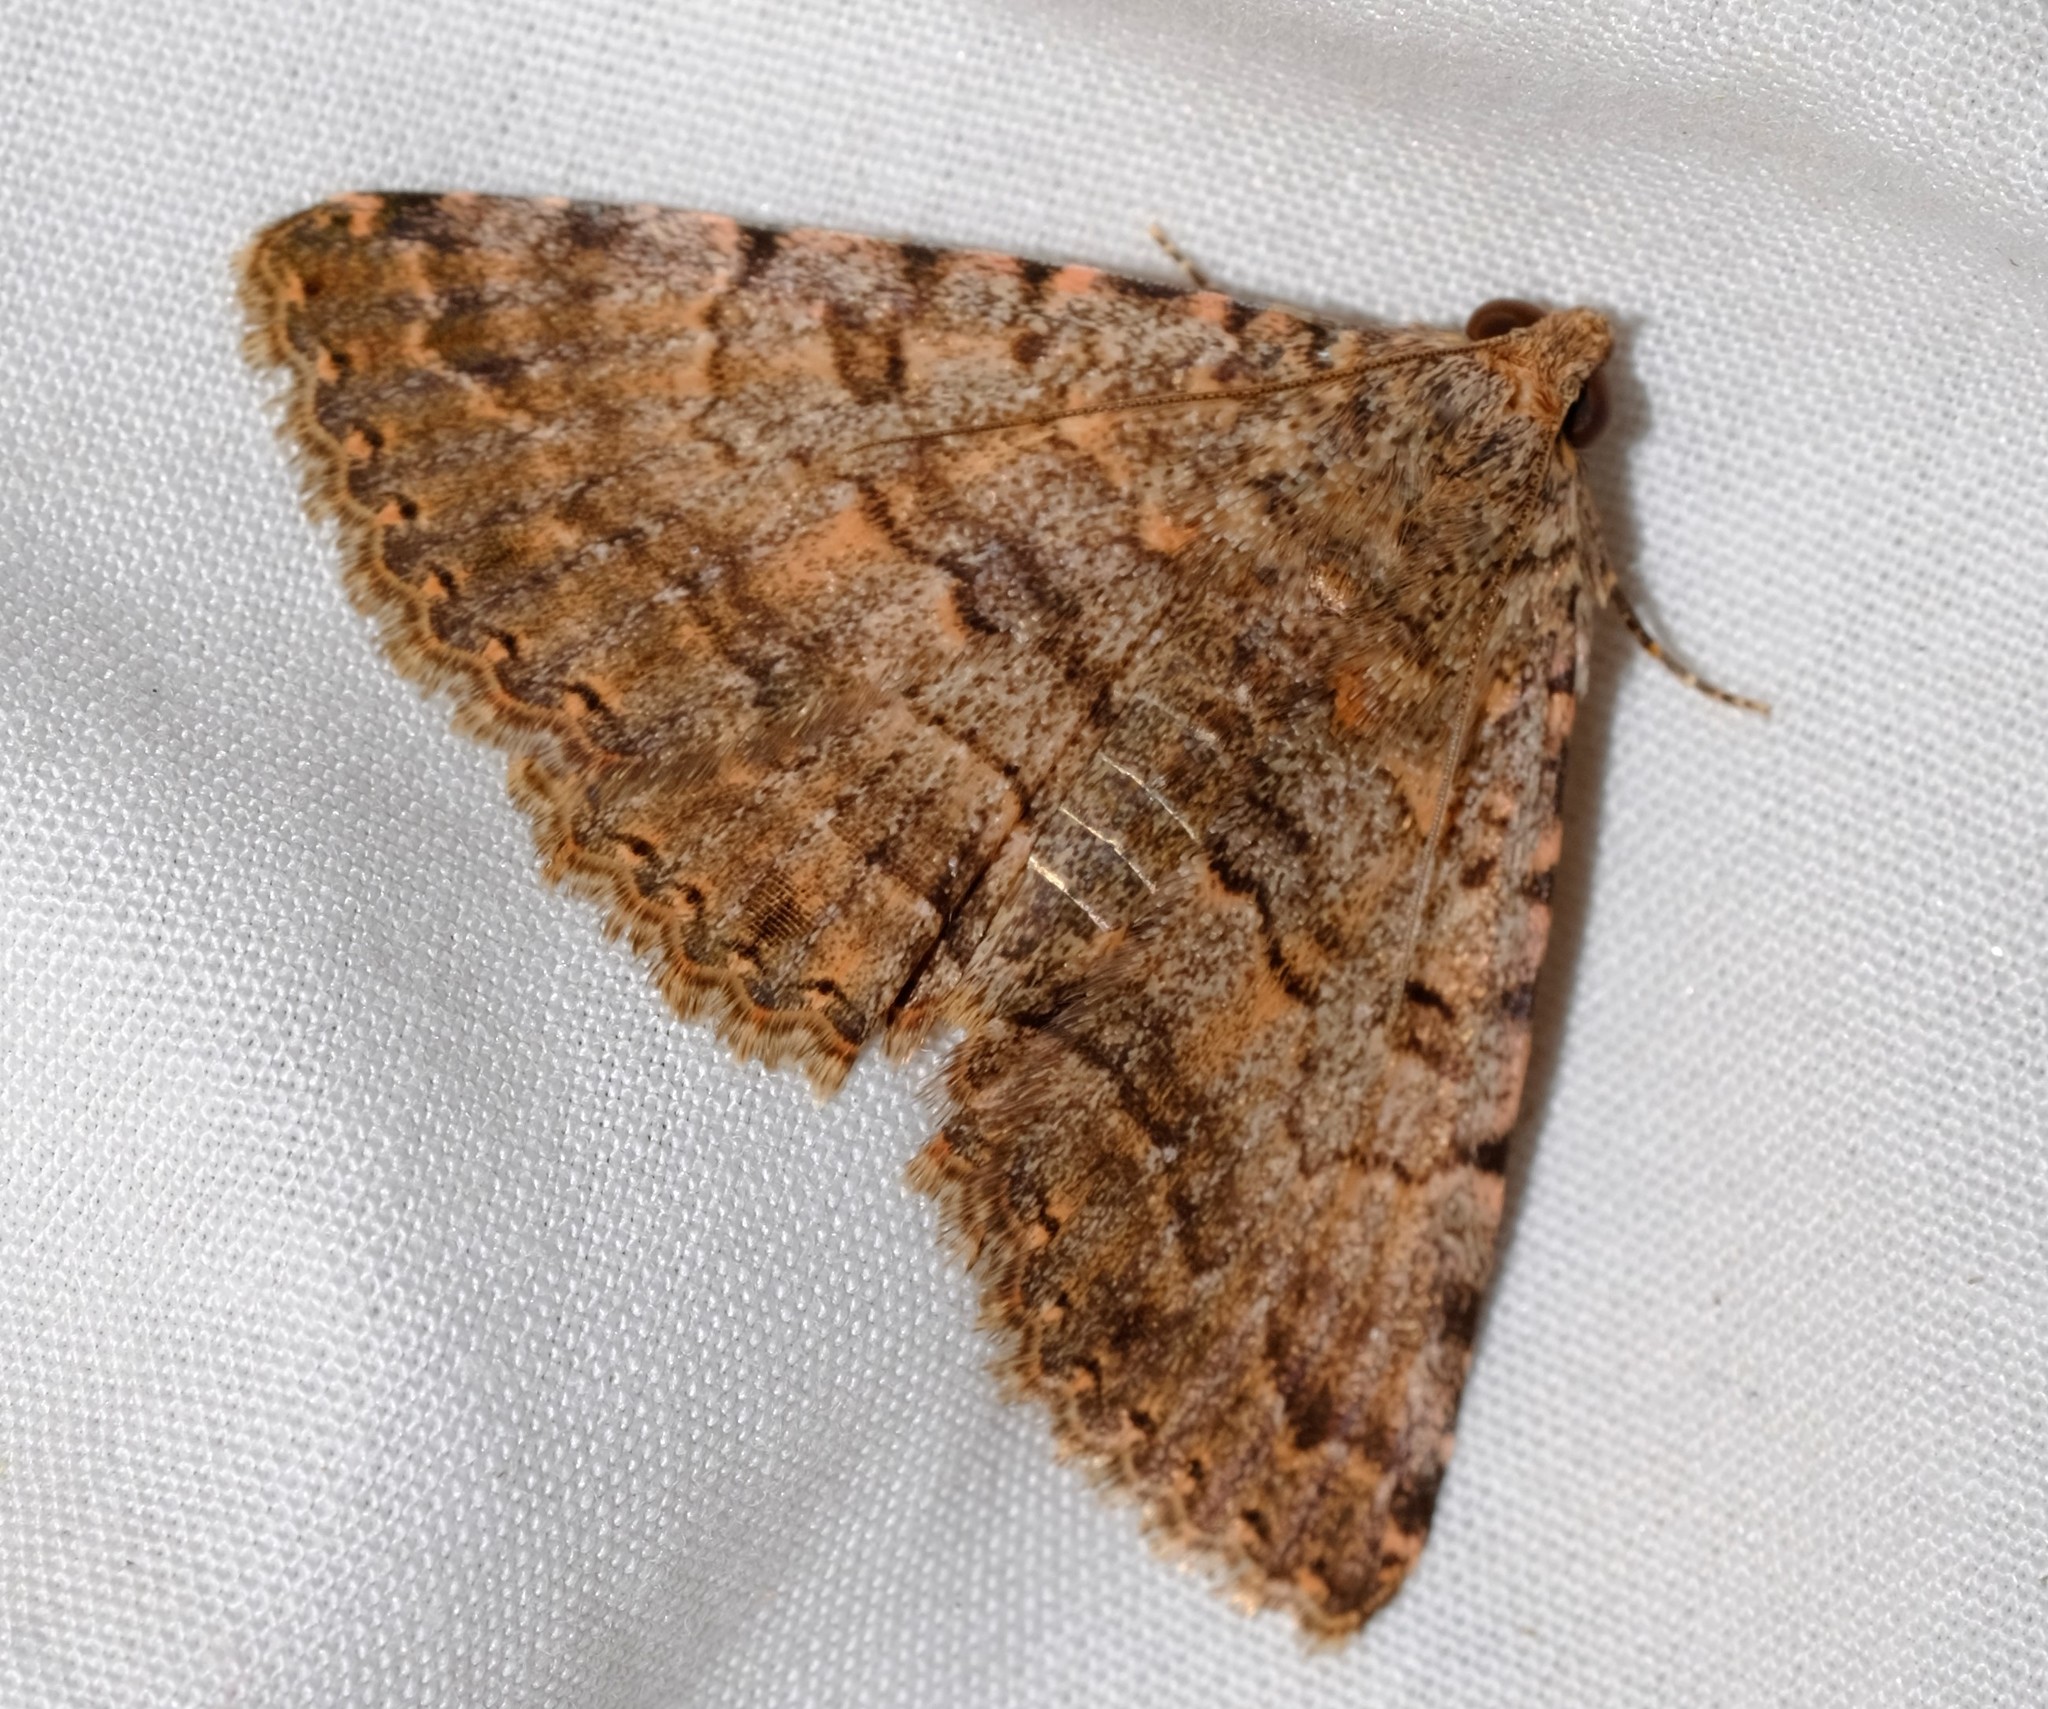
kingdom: Animalia
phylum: Arthropoda
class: Insecta
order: Lepidoptera
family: Erebidae
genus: Diatenes
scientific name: Diatenes aglossoides
